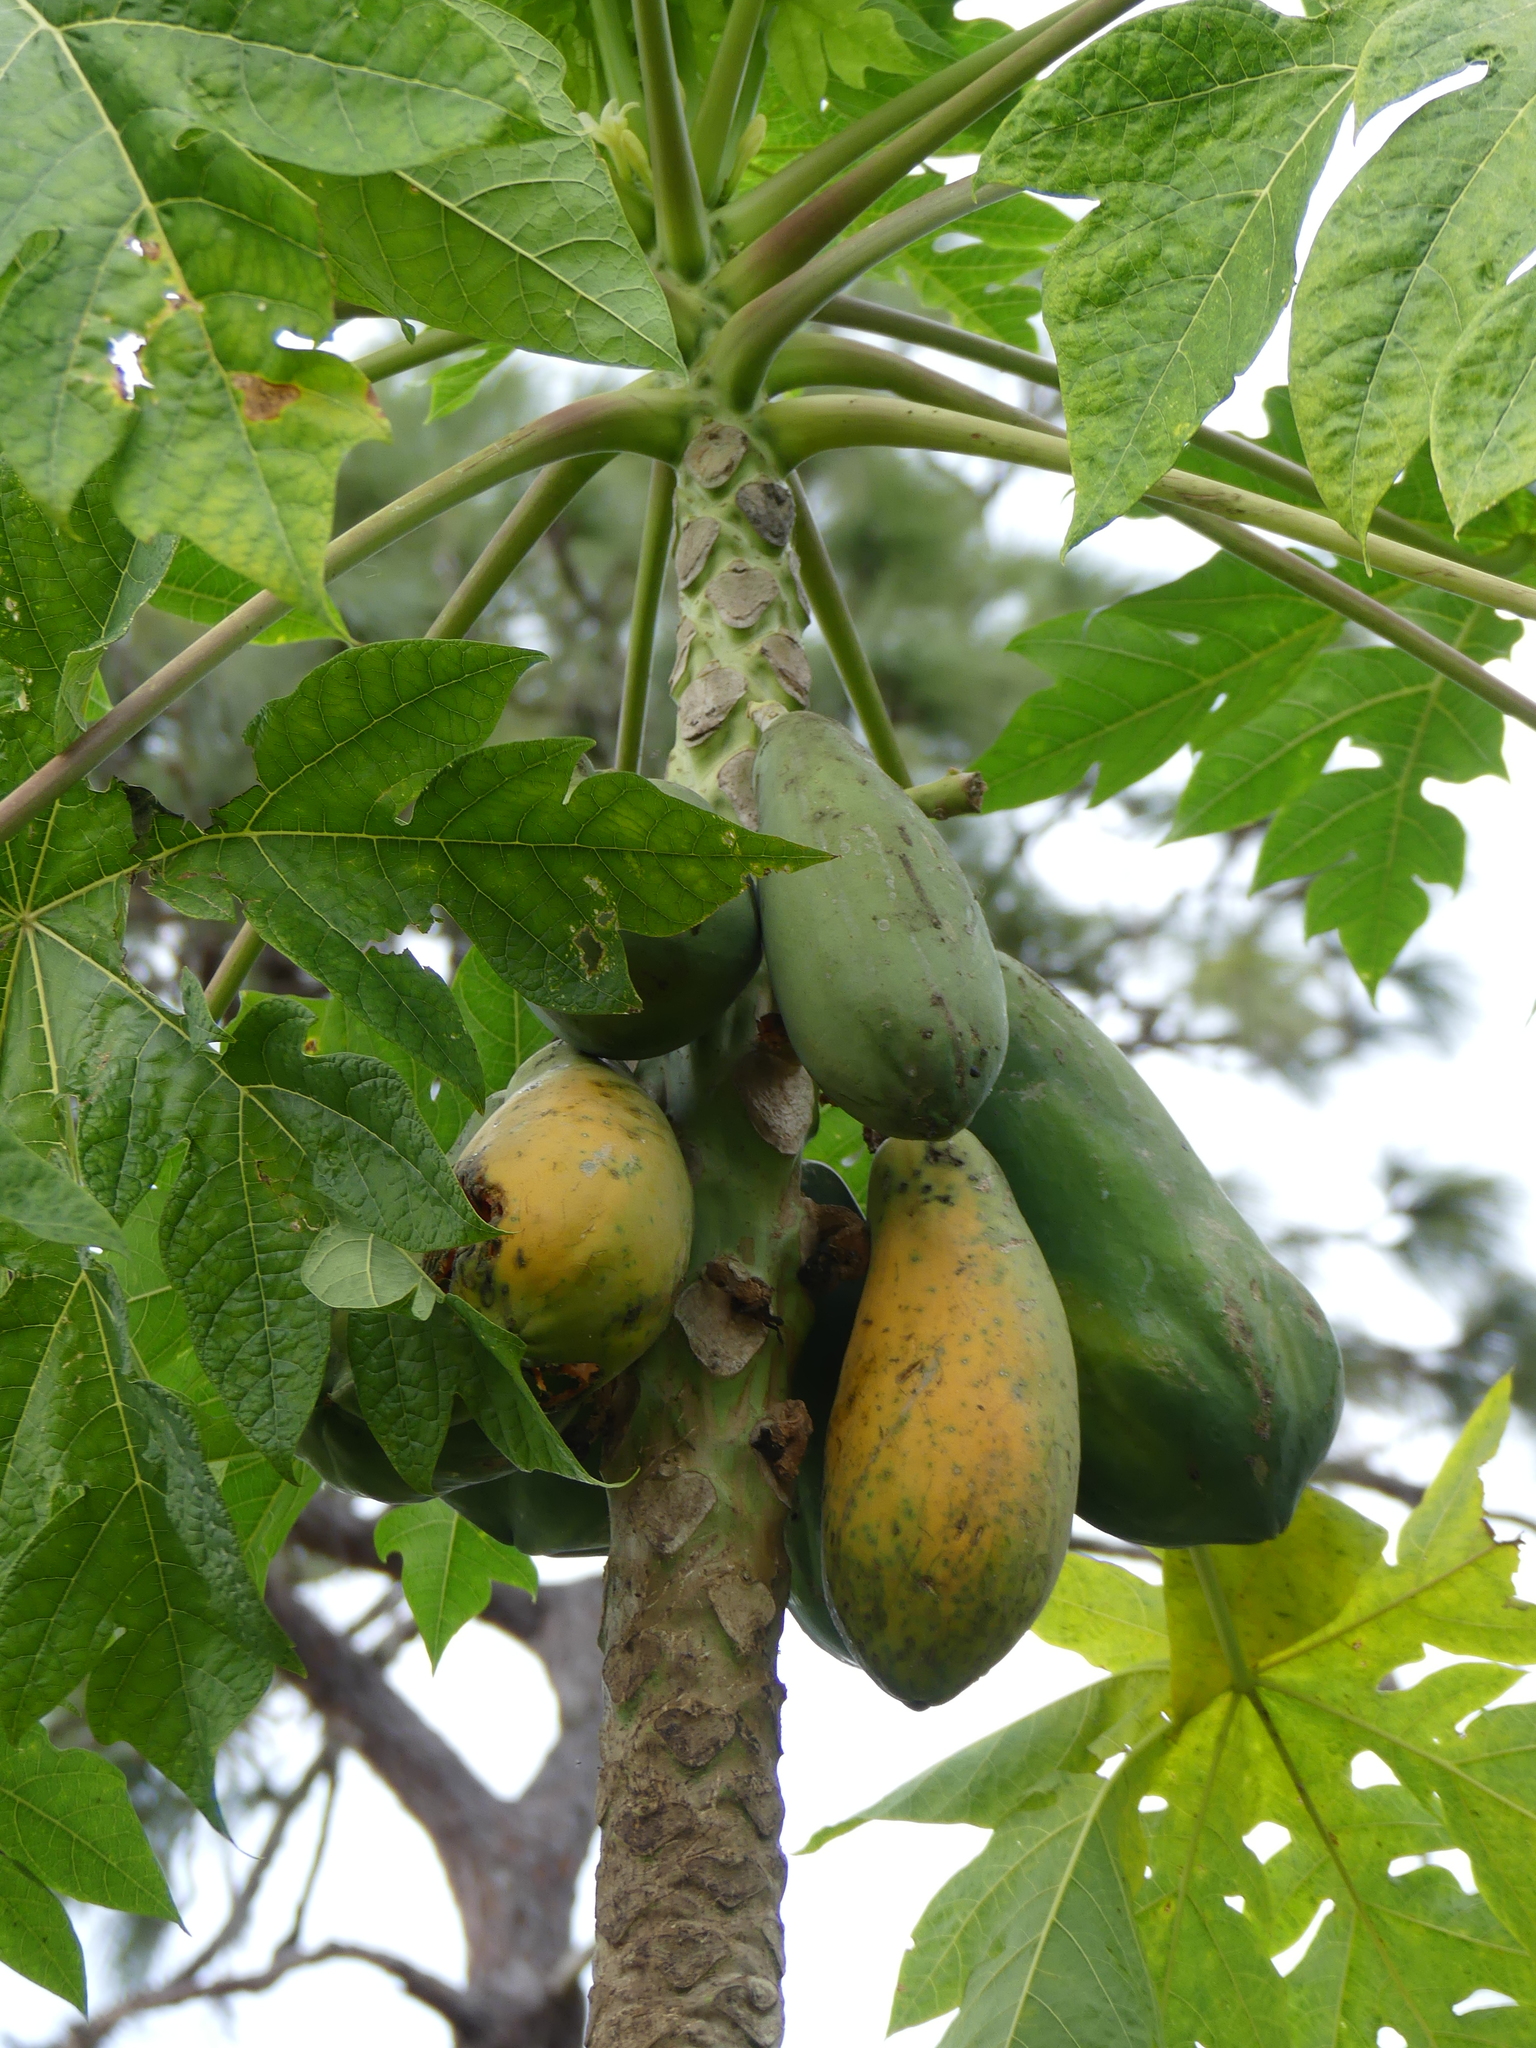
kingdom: Plantae
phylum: Tracheophyta
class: Magnoliopsida
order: Brassicales
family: Caricaceae
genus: Carica
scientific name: Carica papaya
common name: Papaya
